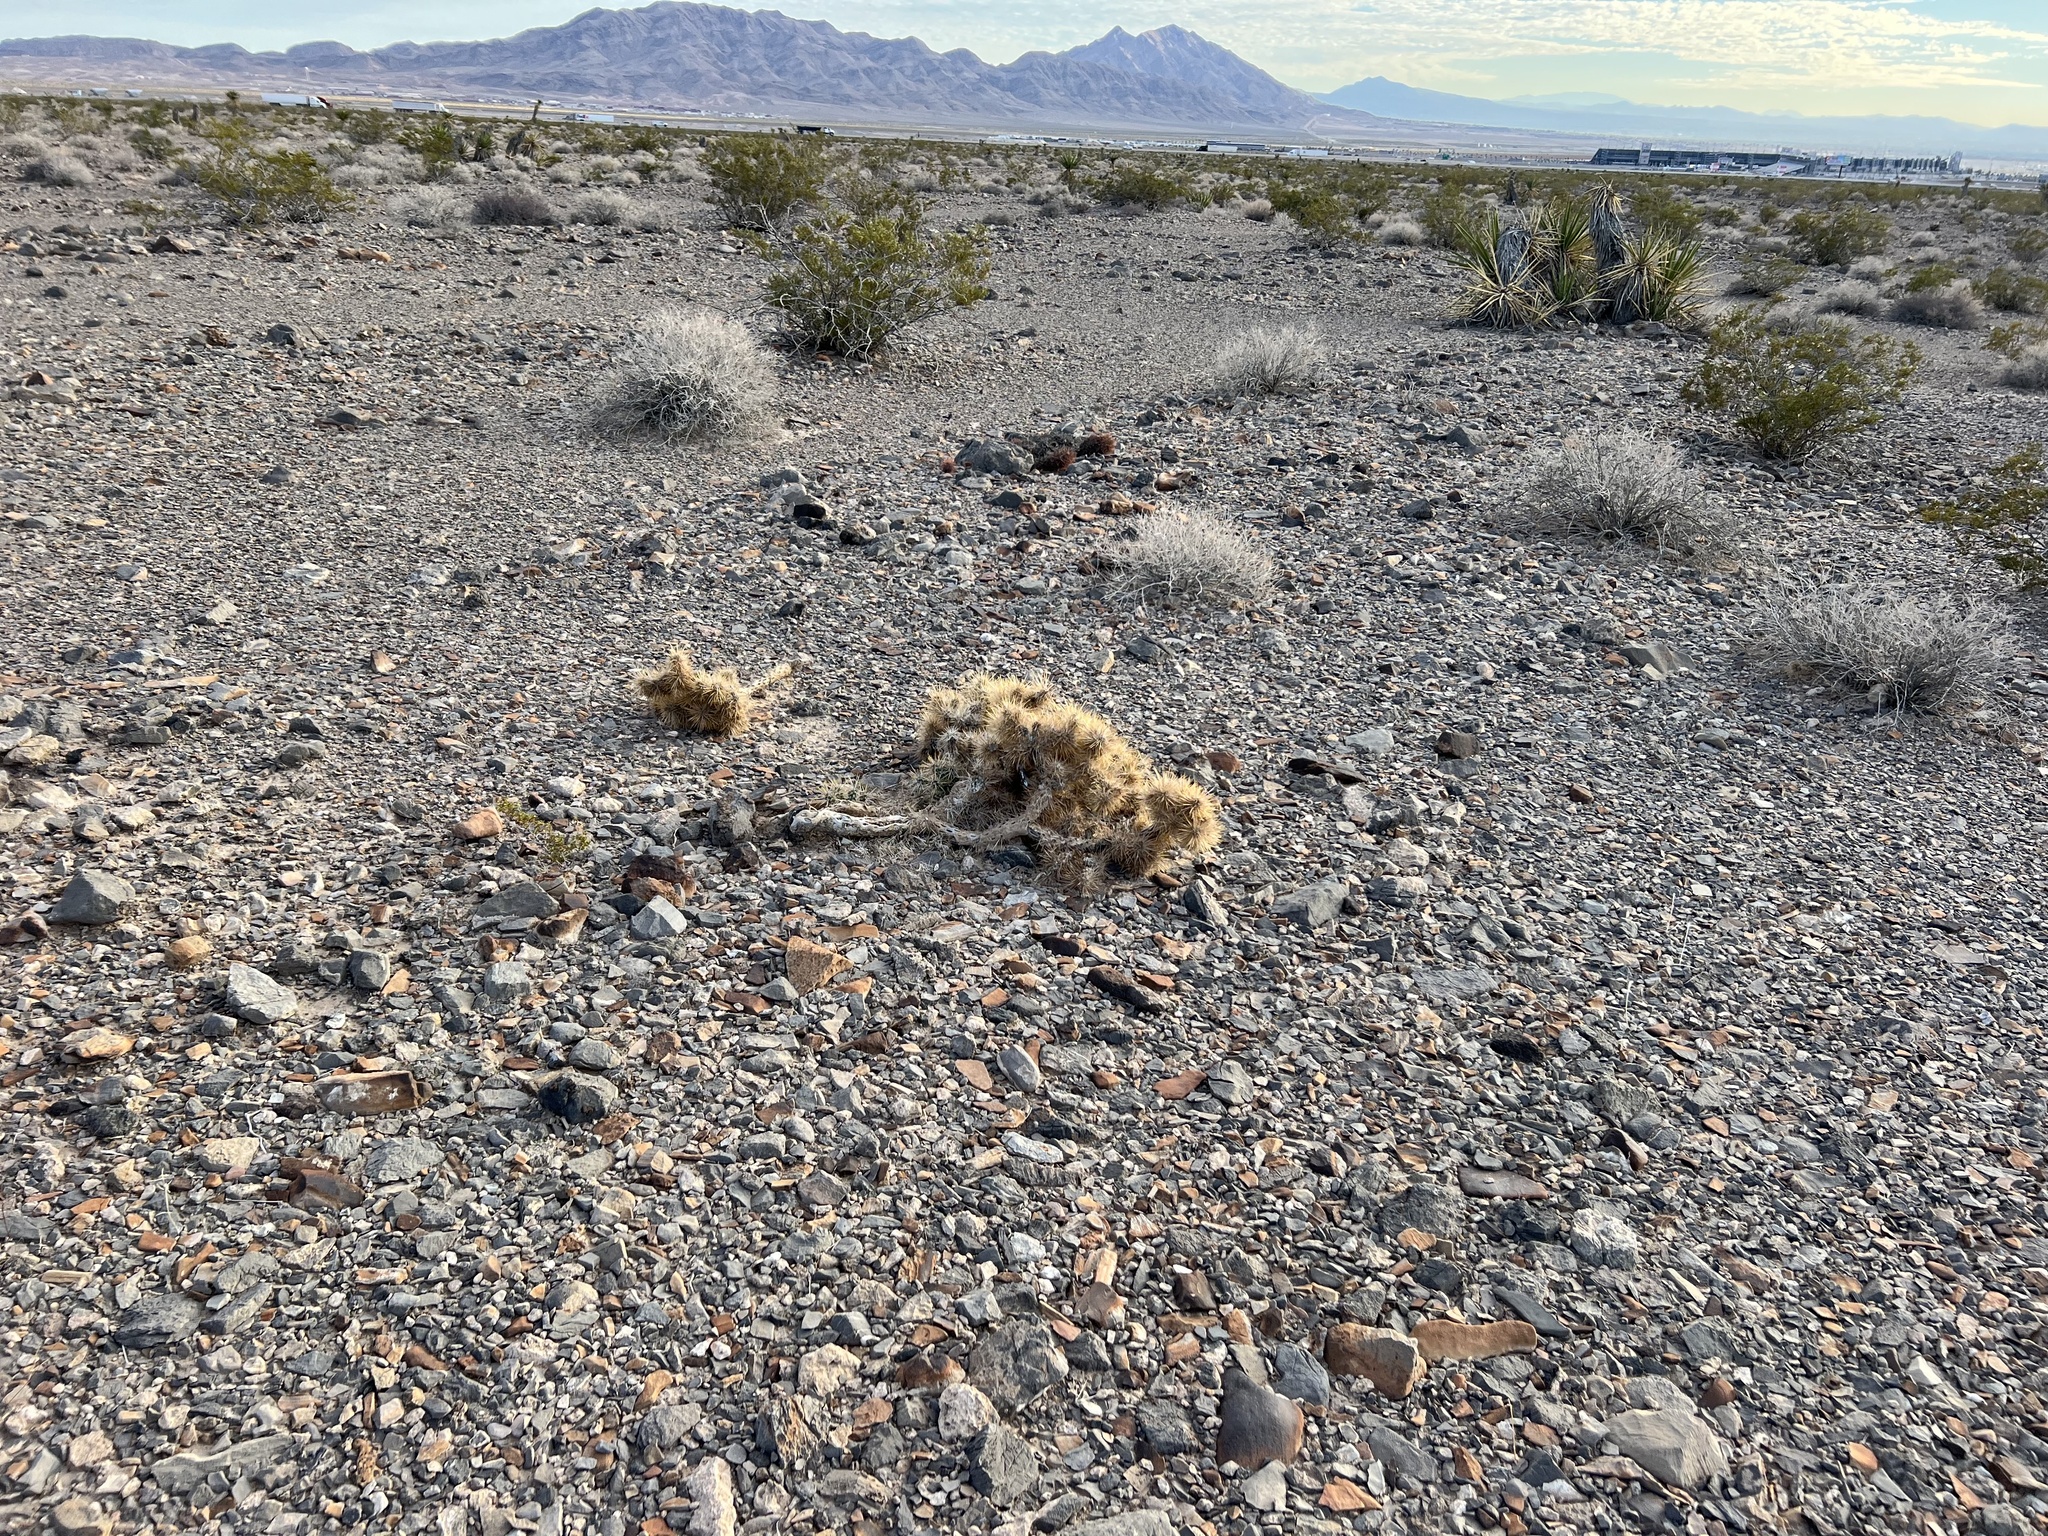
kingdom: Plantae
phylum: Tracheophyta
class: Magnoliopsida
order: Caryophyllales
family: Cactaceae
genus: Cylindropuntia
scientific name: Cylindropuntia echinocarpa
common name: Ground cholla
